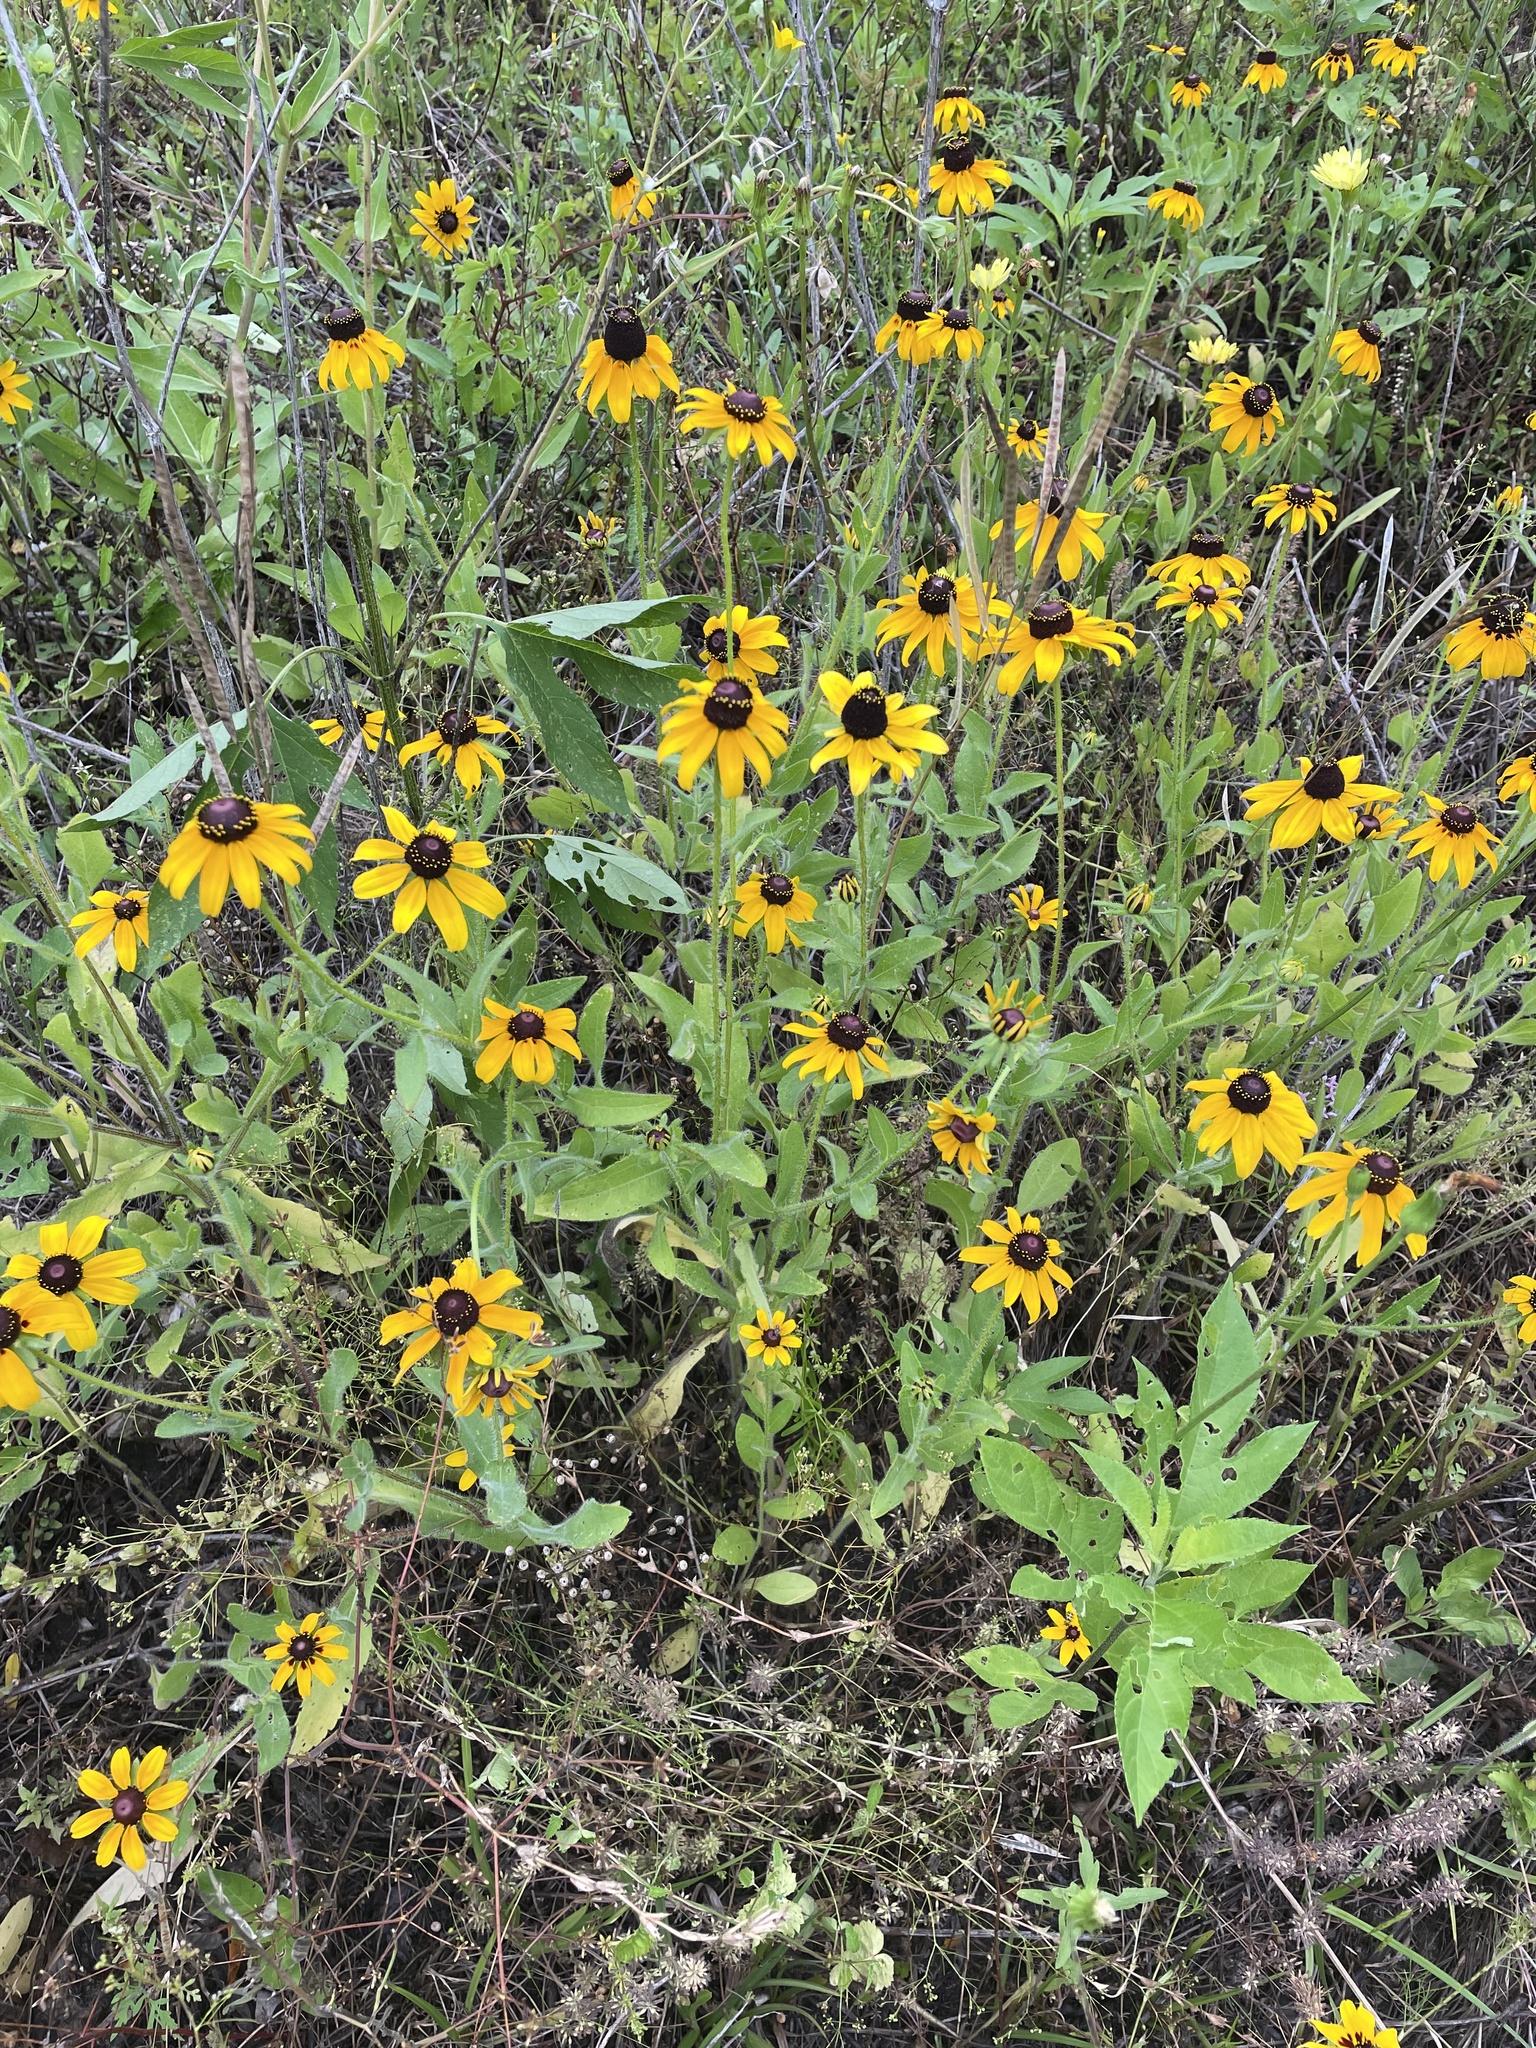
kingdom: Plantae
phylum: Tracheophyta
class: Magnoliopsida
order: Asterales
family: Asteraceae
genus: Rudbeckia
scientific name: Rudbeckia hirta
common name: Black-eyed-susan
